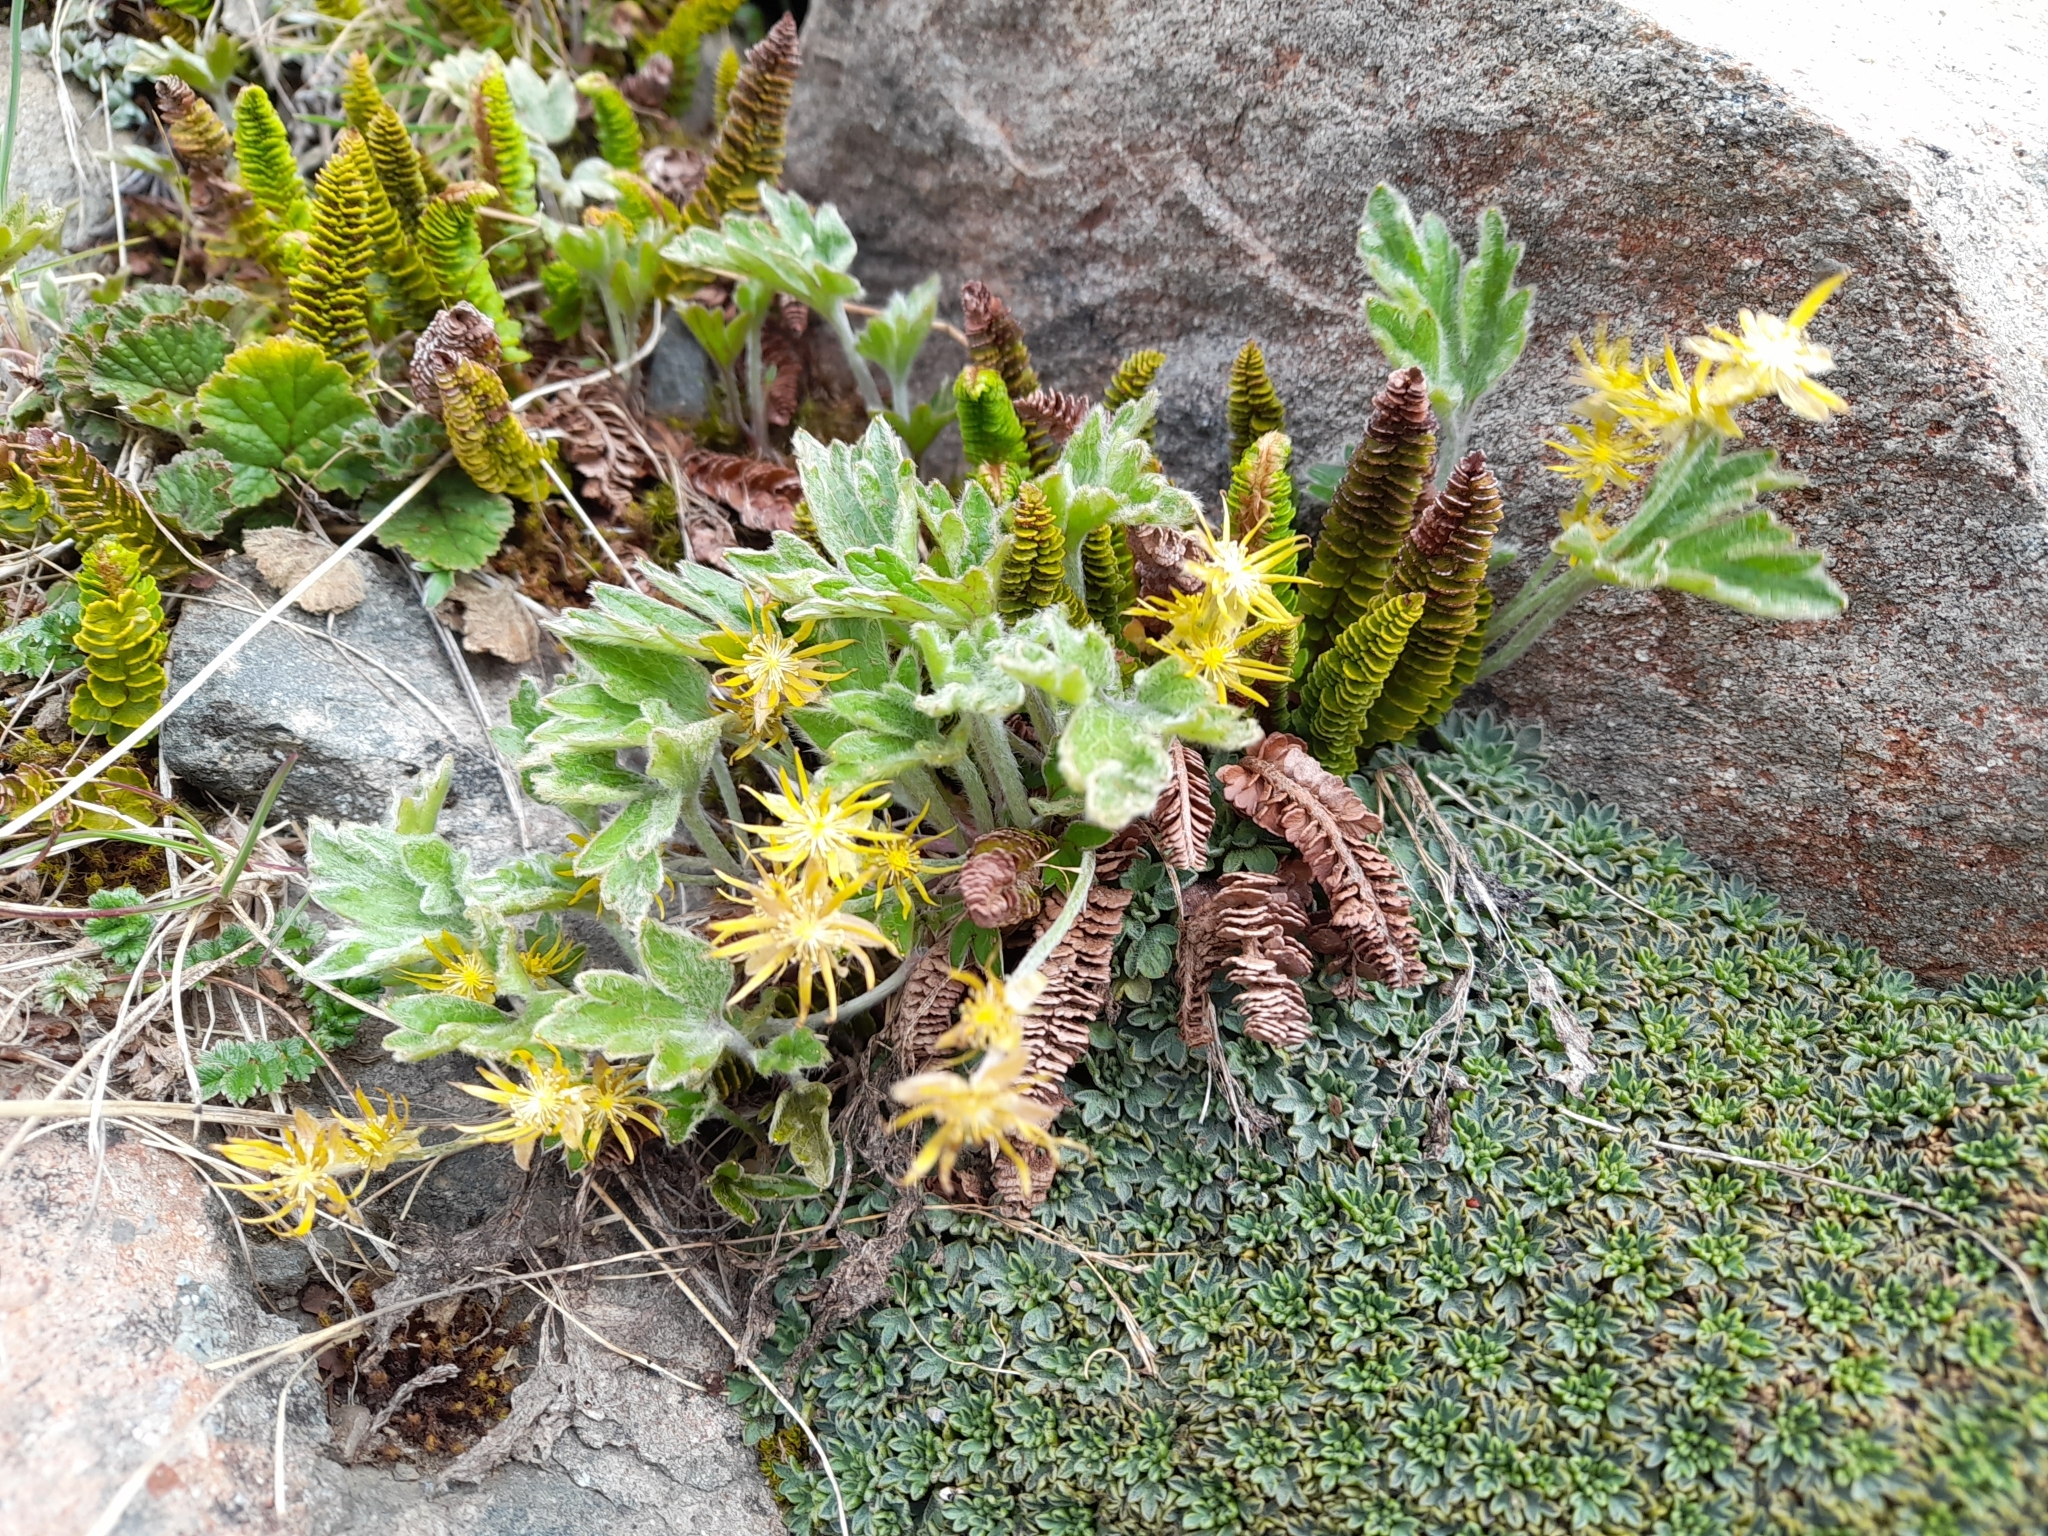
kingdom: Plantae
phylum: Tracheophyta
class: Magnoliopsida
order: Ranunculales
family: Ranunculaceae
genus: Hamadryas
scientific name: Hamadryas magellanica
